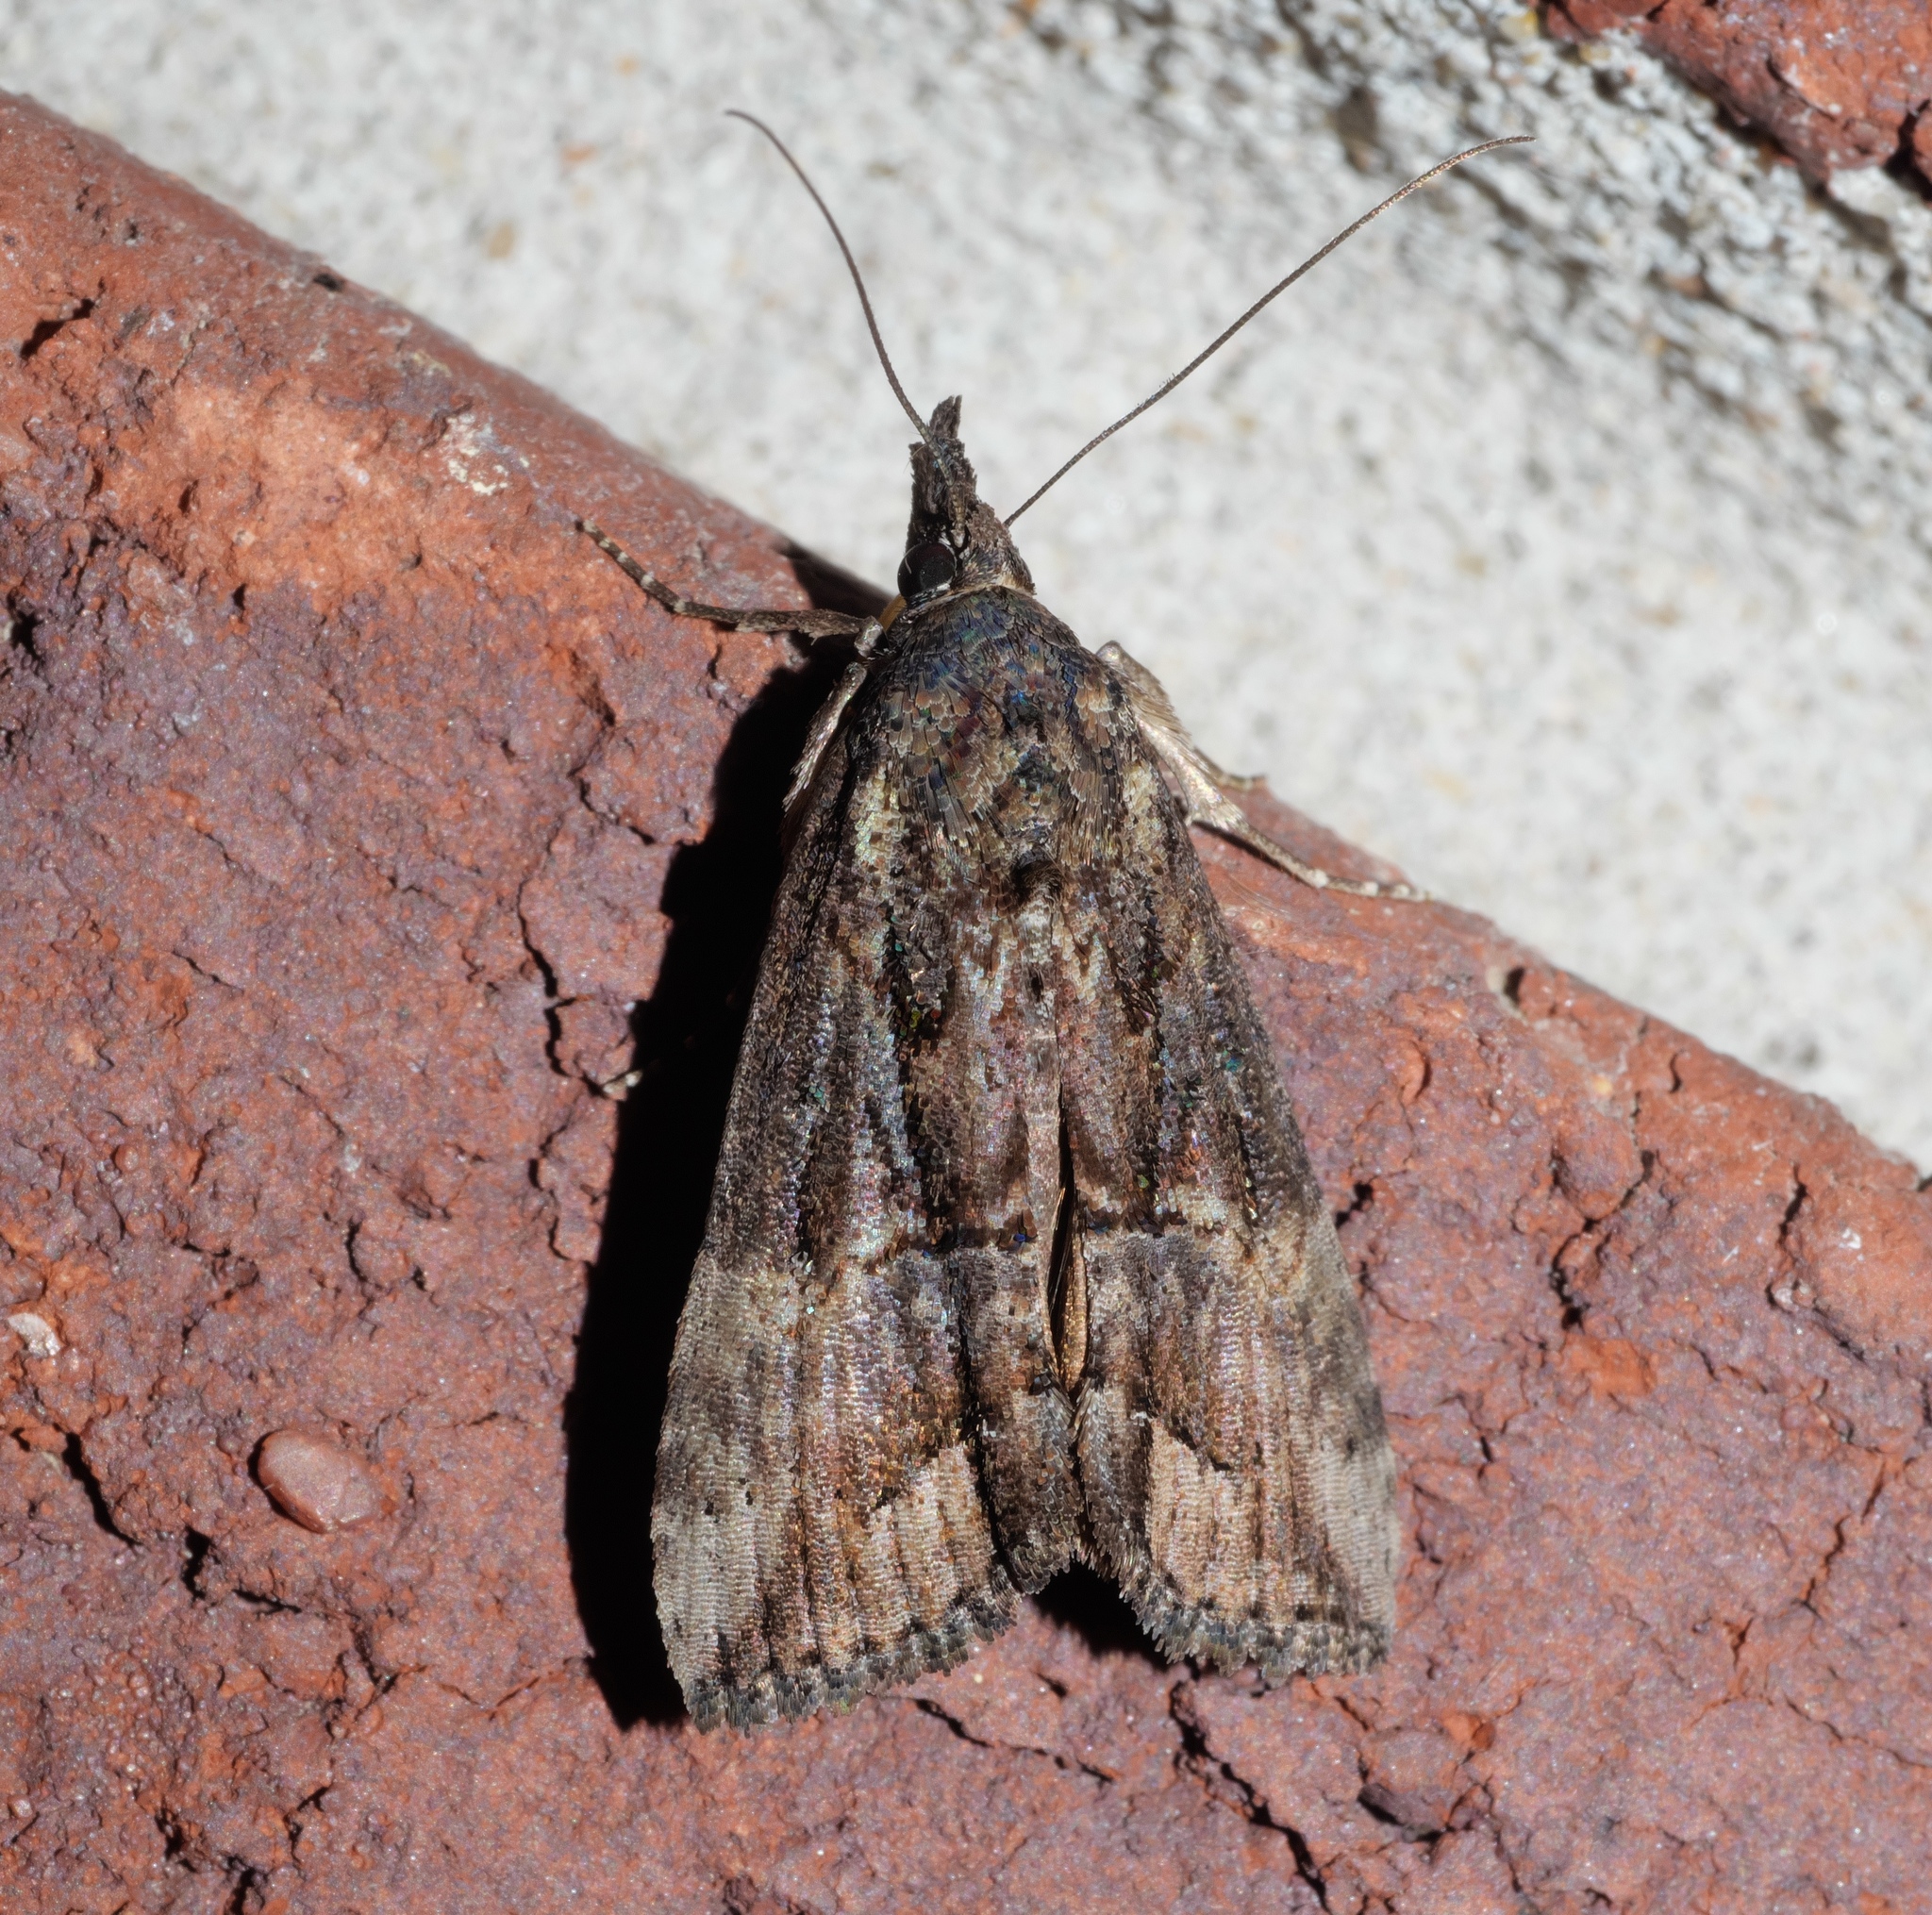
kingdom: Animalia
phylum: Arthropoda
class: Insecta
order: Lepidoptera
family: Erebidae
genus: Hypena
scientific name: Hypena scabra
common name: Green cloverworm
